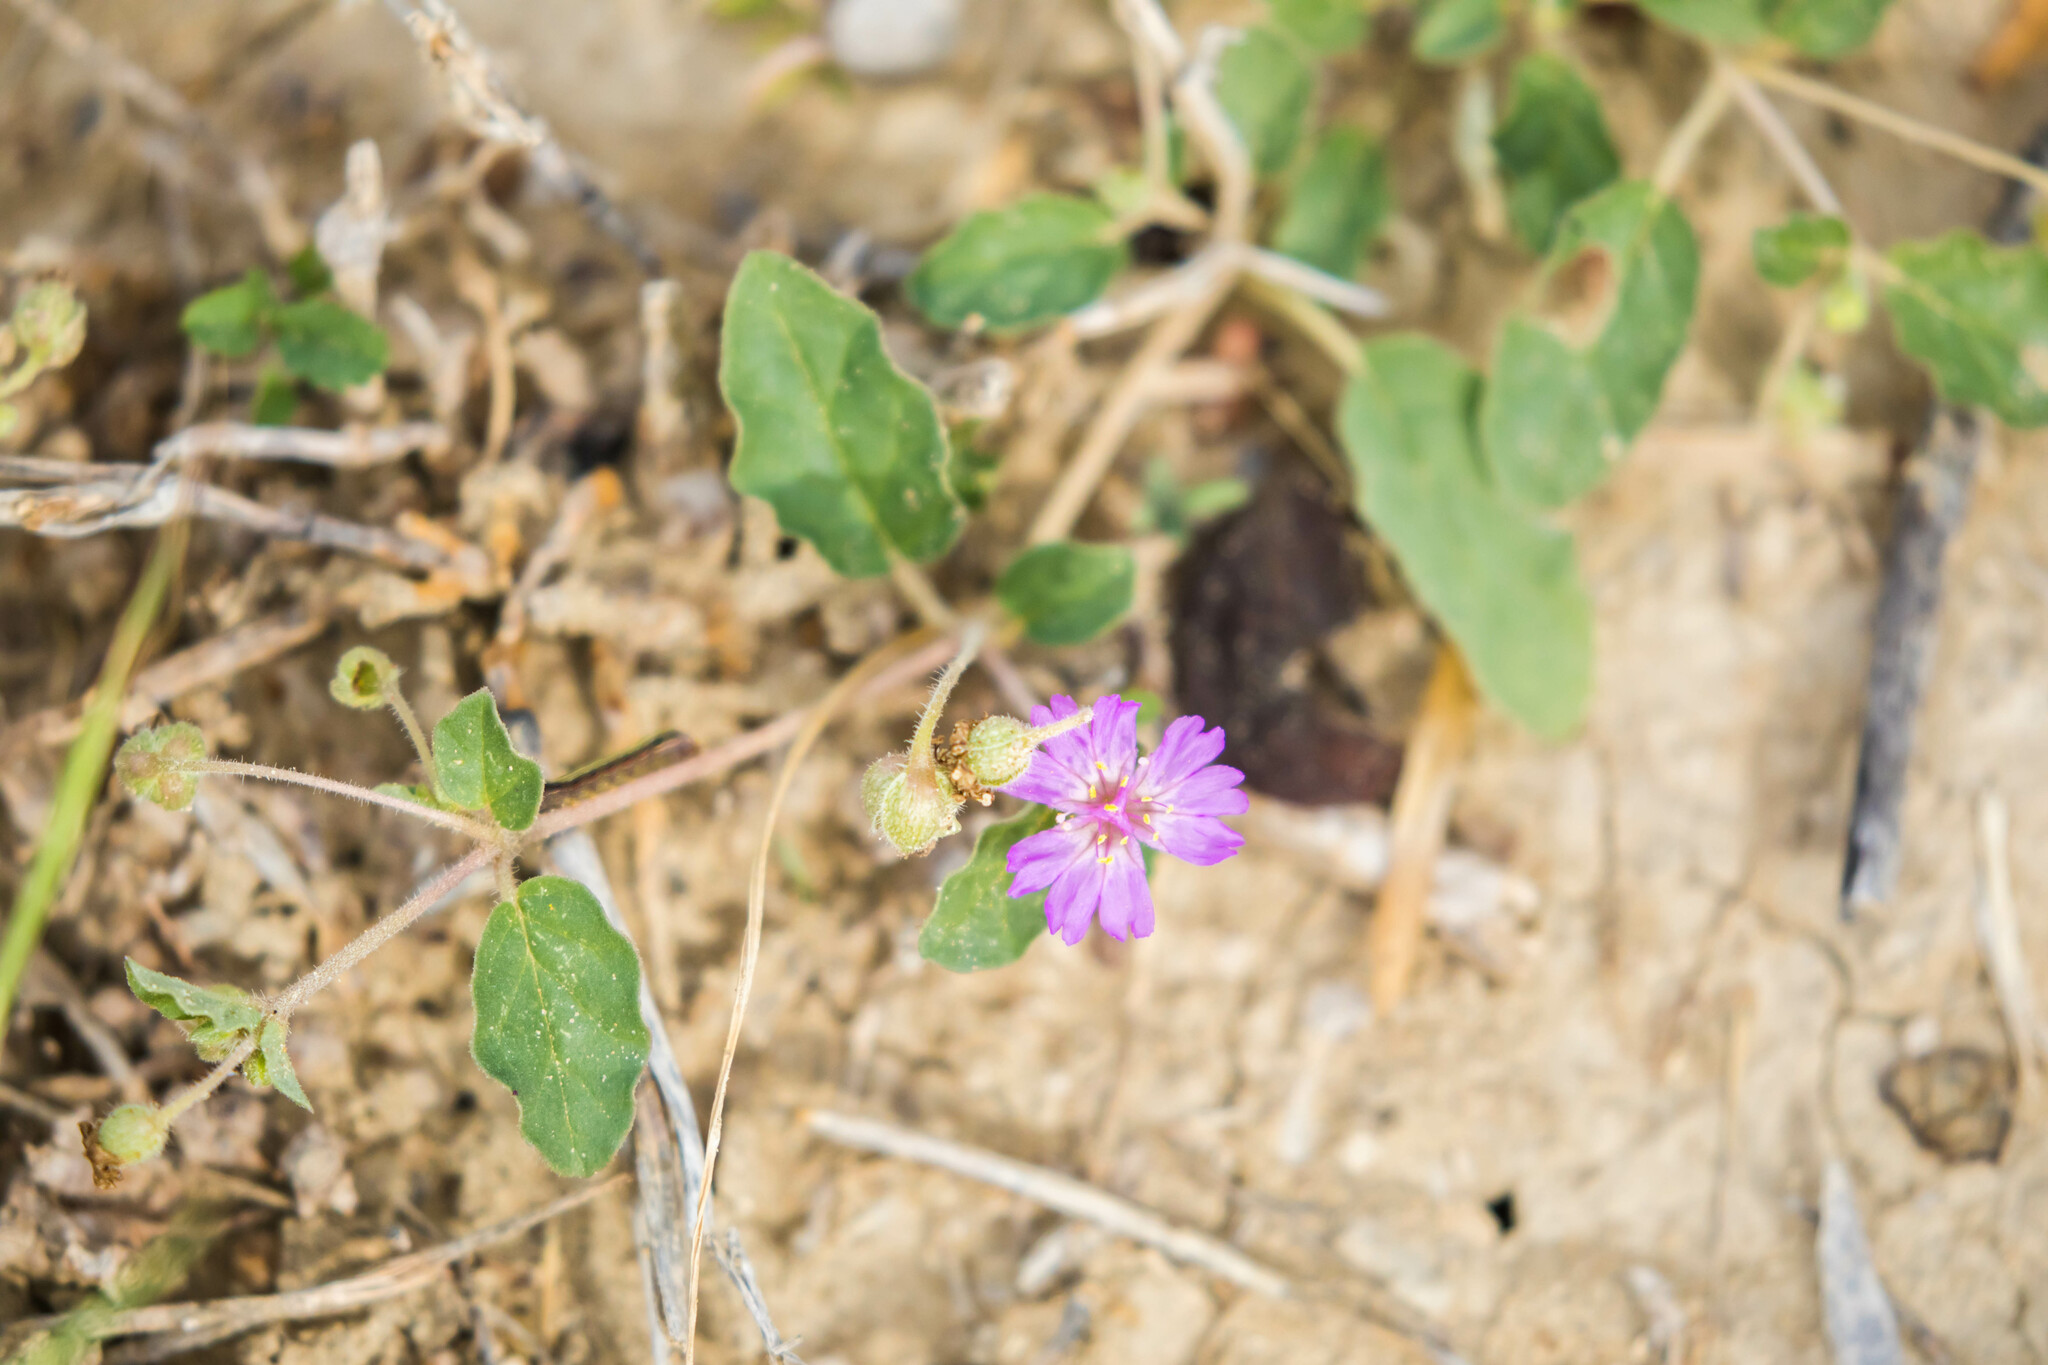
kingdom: Plantae
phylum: Tracheophyta
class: Magnoliopsida
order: Caryophyllales
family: Nyctaginaceae
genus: Allionia
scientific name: Allionia incarnata
